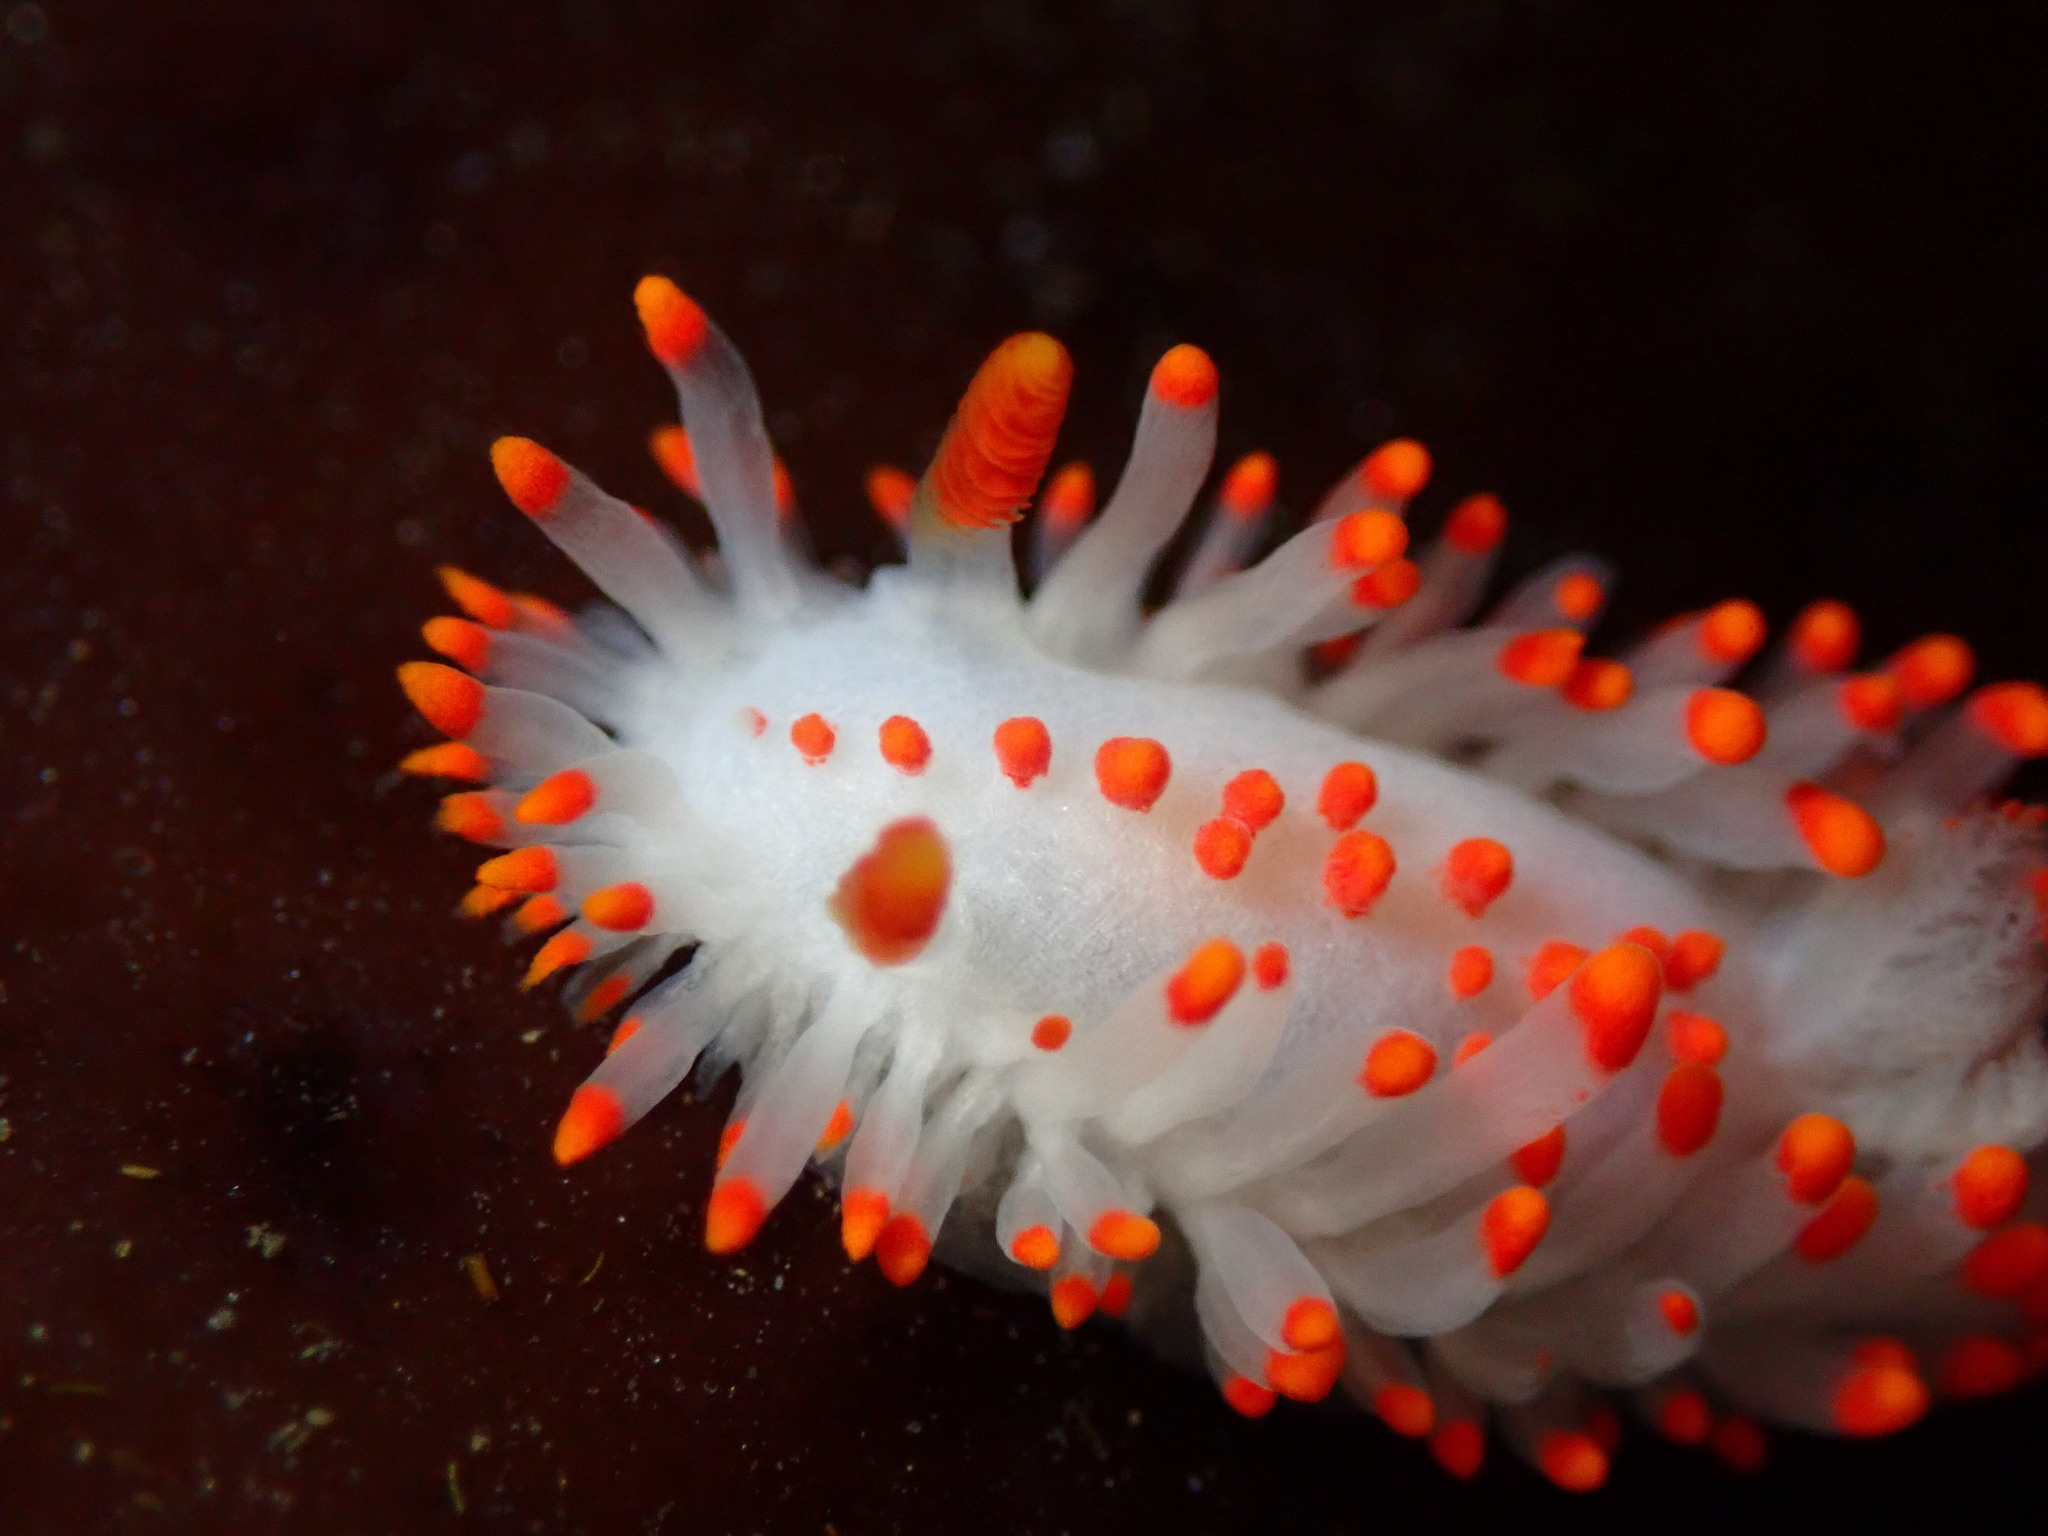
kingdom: Animalia
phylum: Mollusca
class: Gastropoda
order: Nudibranchia
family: Polyceridae
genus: Limacia
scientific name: Limacia mcdonaldi
